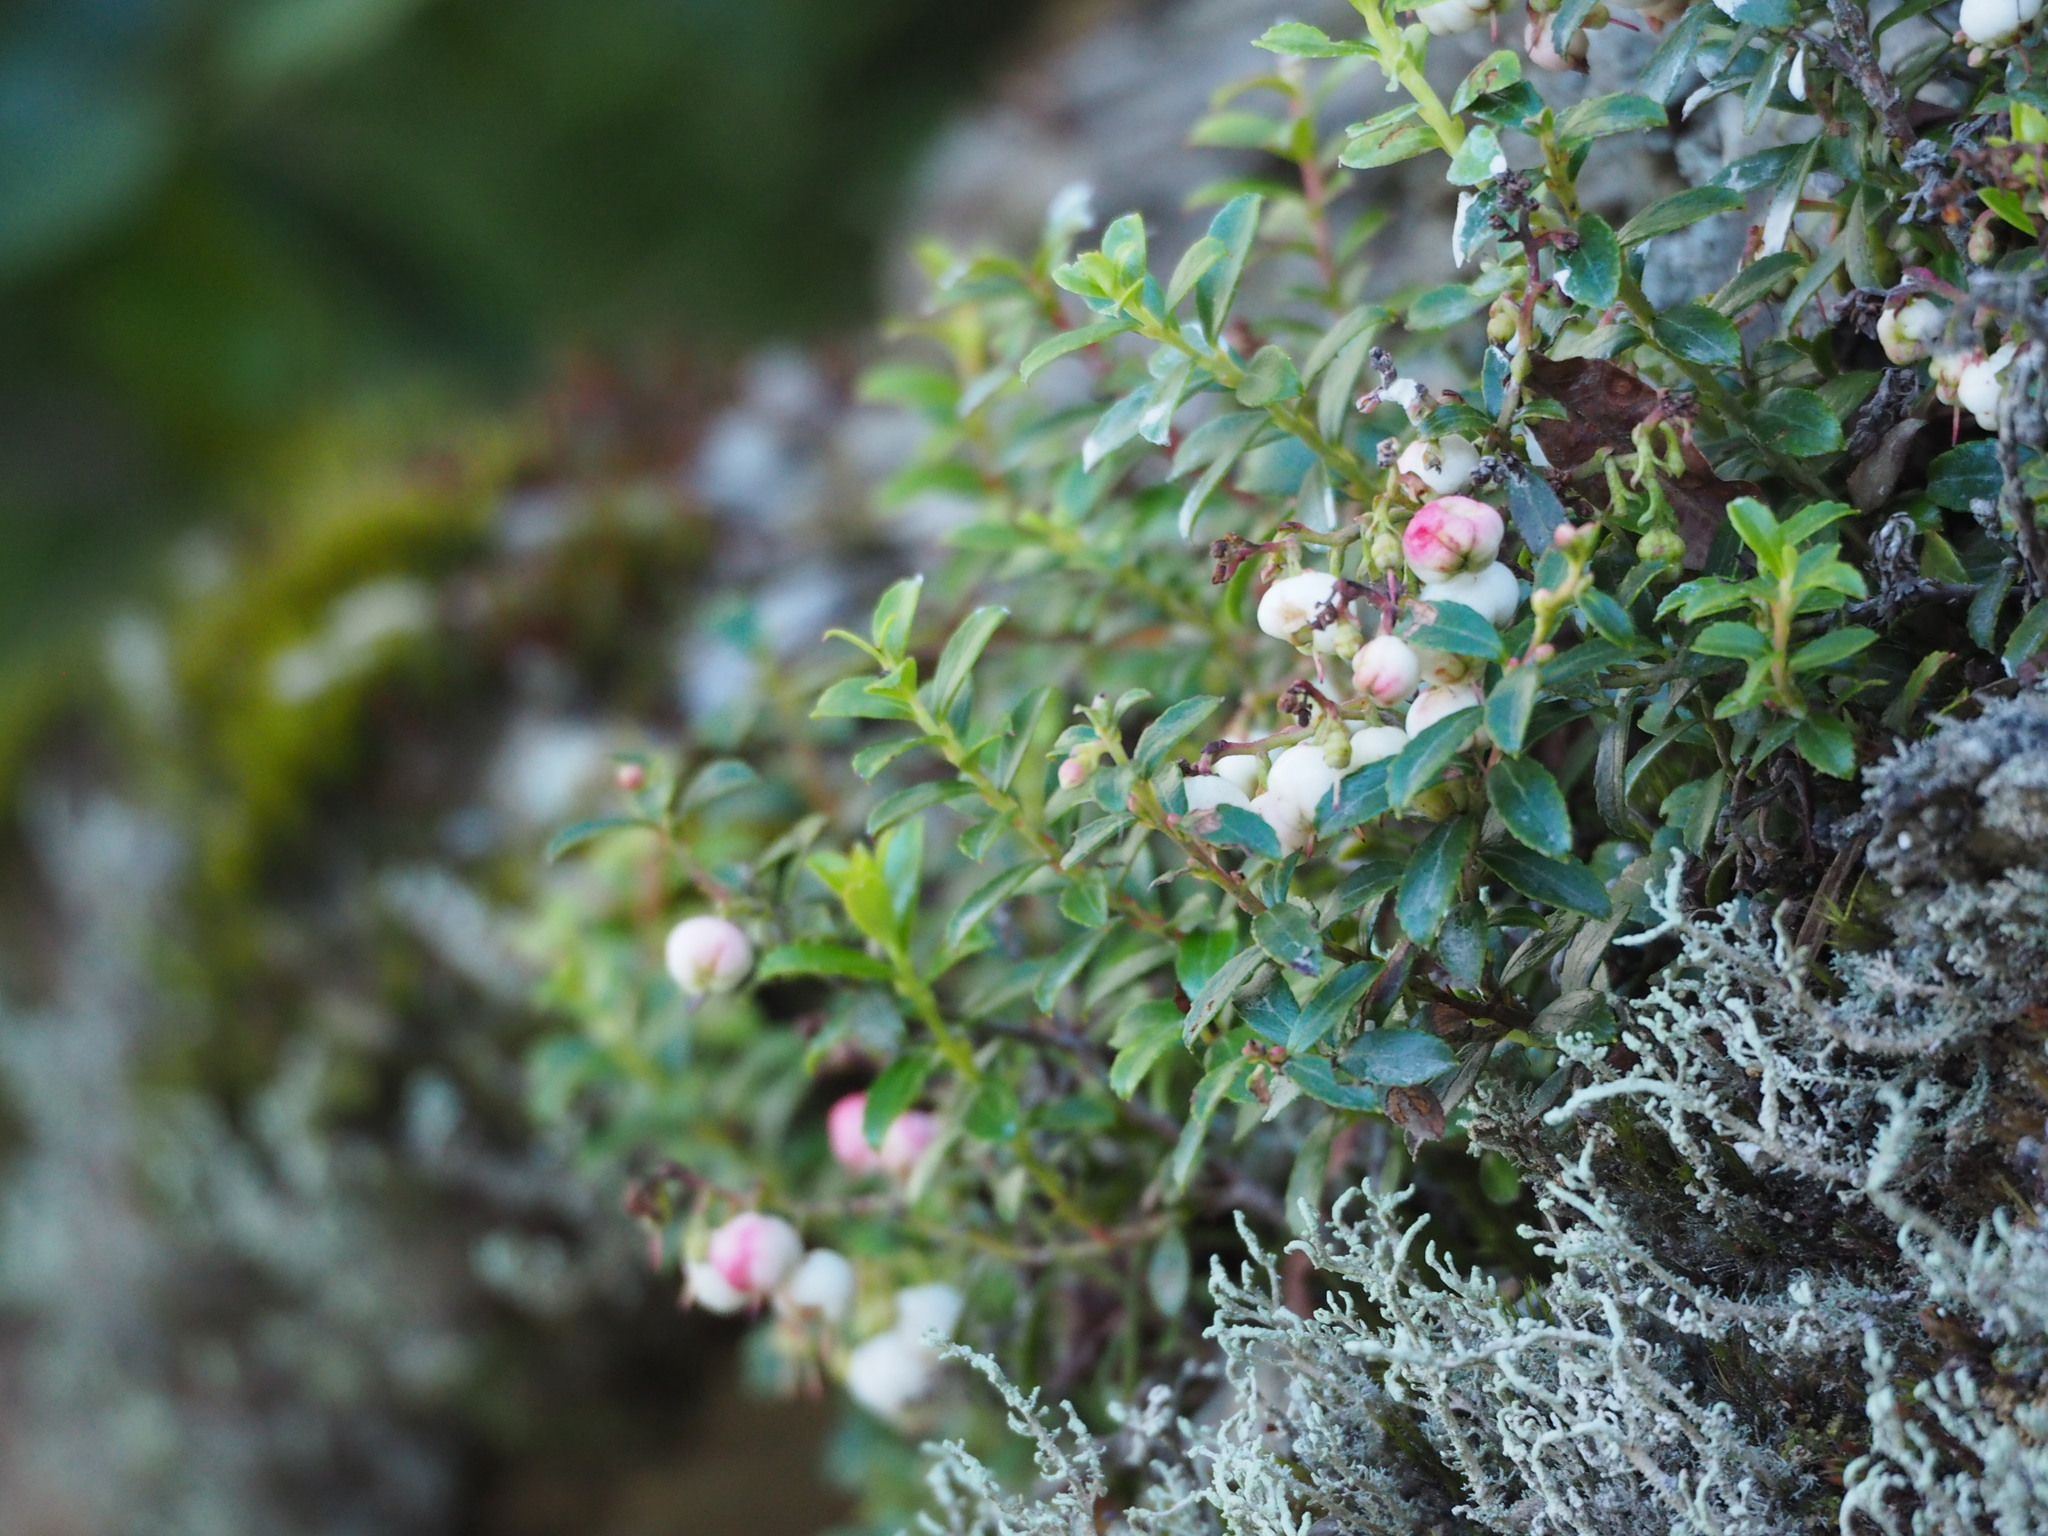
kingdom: Plantae
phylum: Tracheophyta
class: Magnoliopsida
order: Ericales
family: Ericaceae
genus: Gaultheria
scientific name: Gaultheria borneensis
